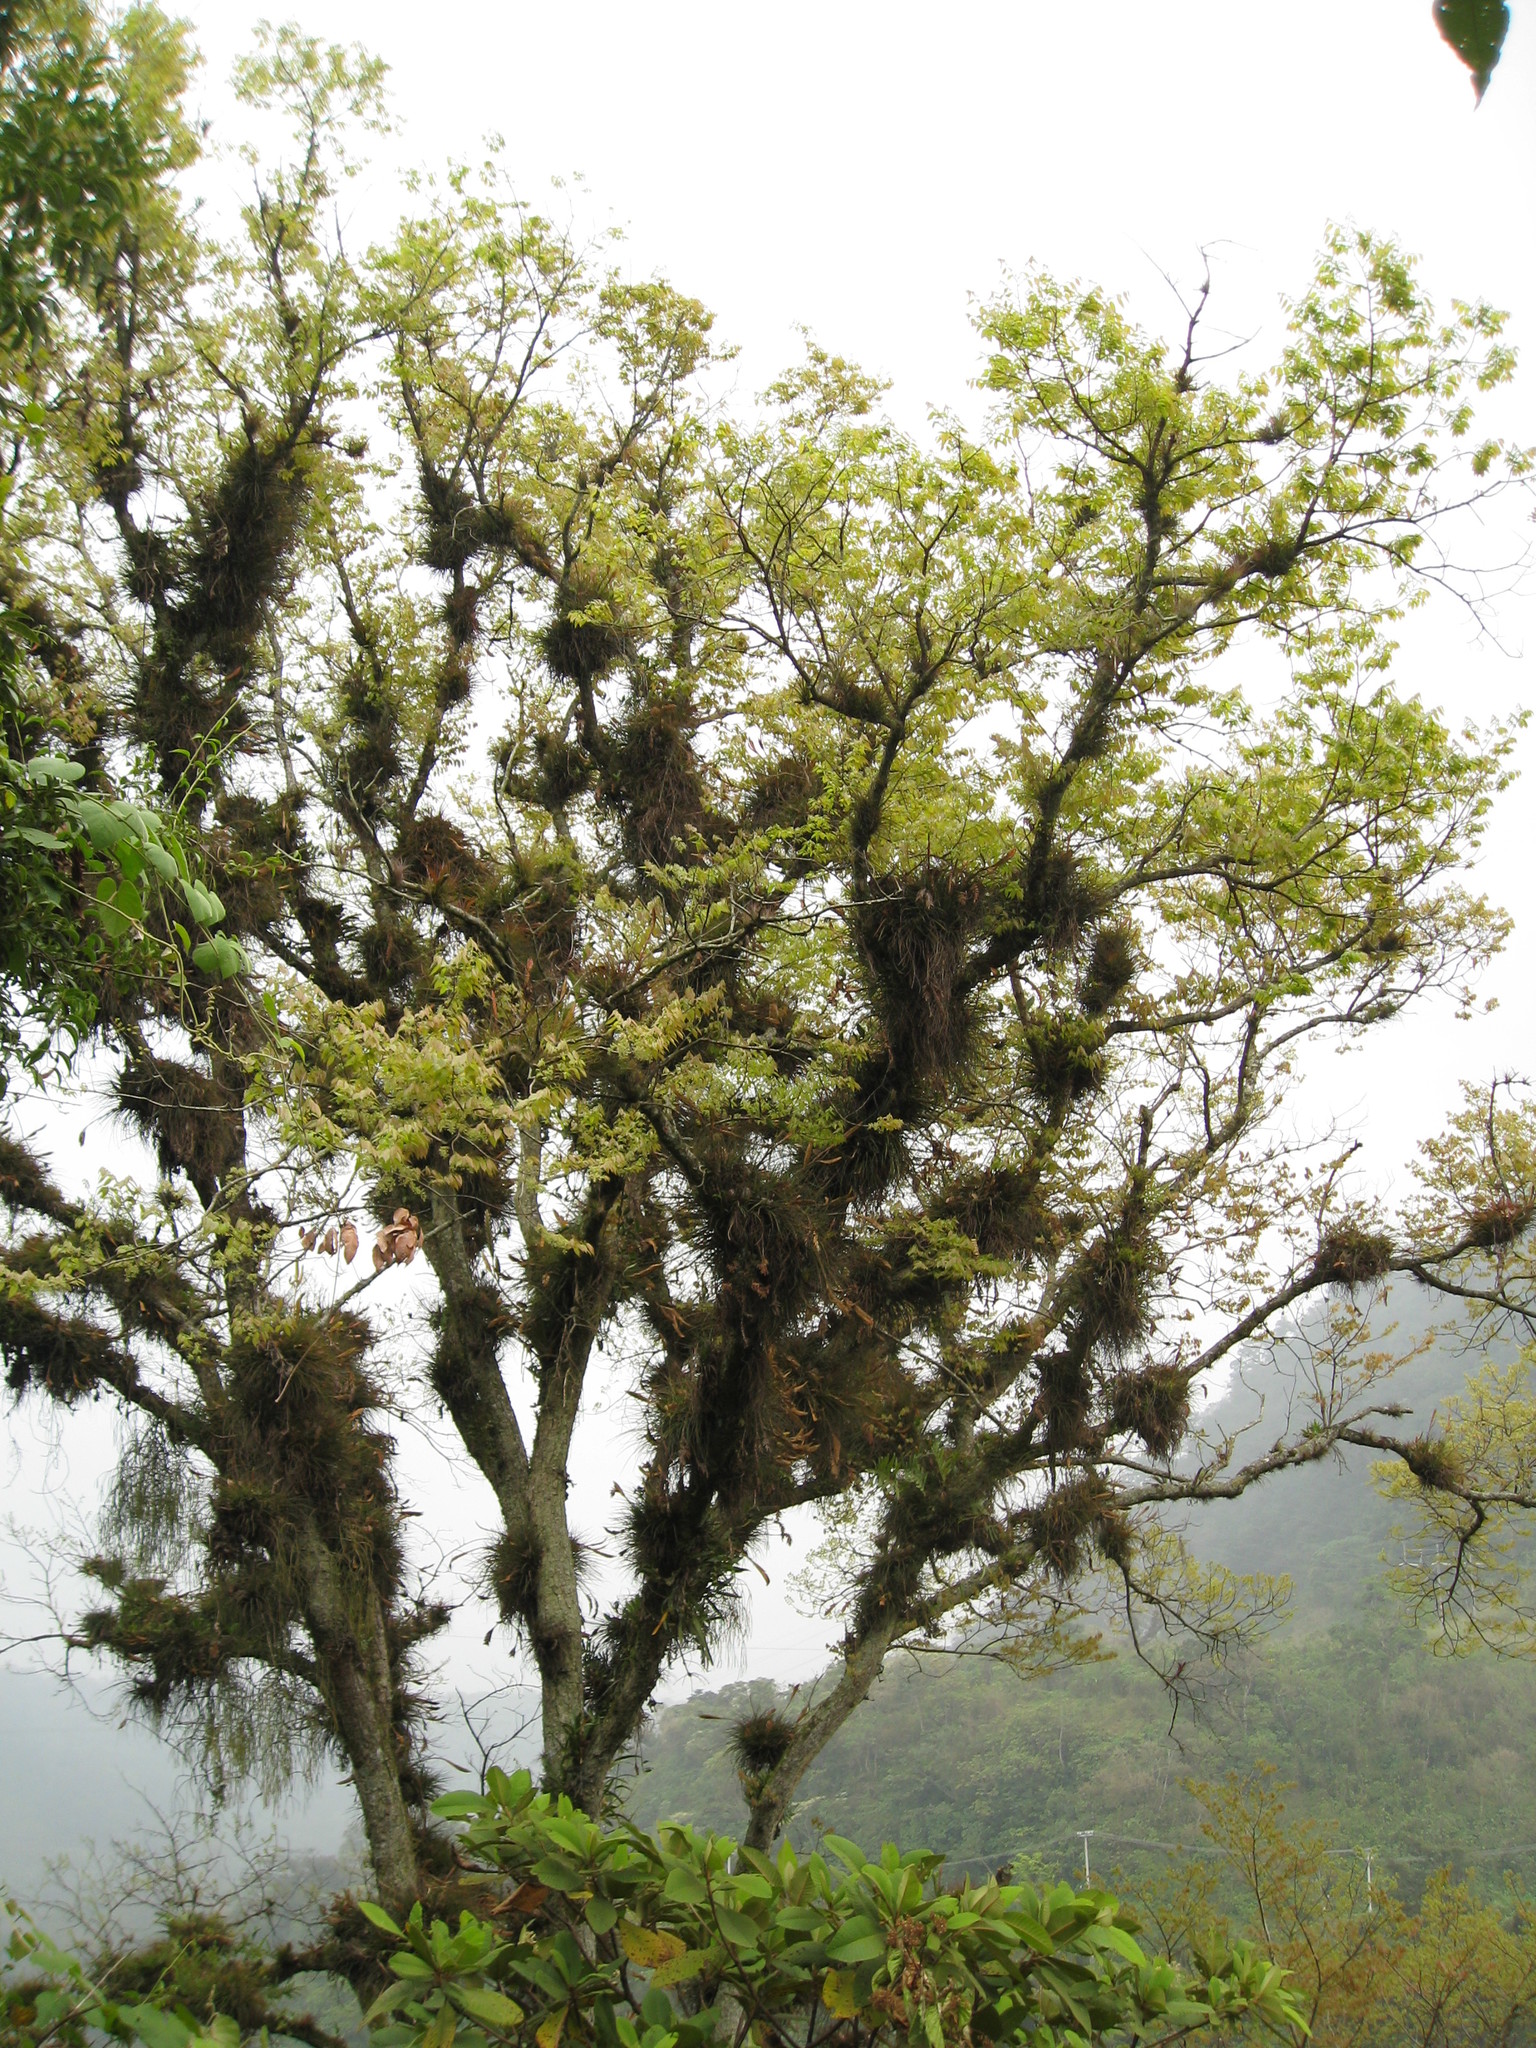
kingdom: Plantae
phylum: Tracheophyta
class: Liliopsida
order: Poales
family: Bromeliaceae
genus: Tillandsia
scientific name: Tillandsia recurvata
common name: Small ballmoss
